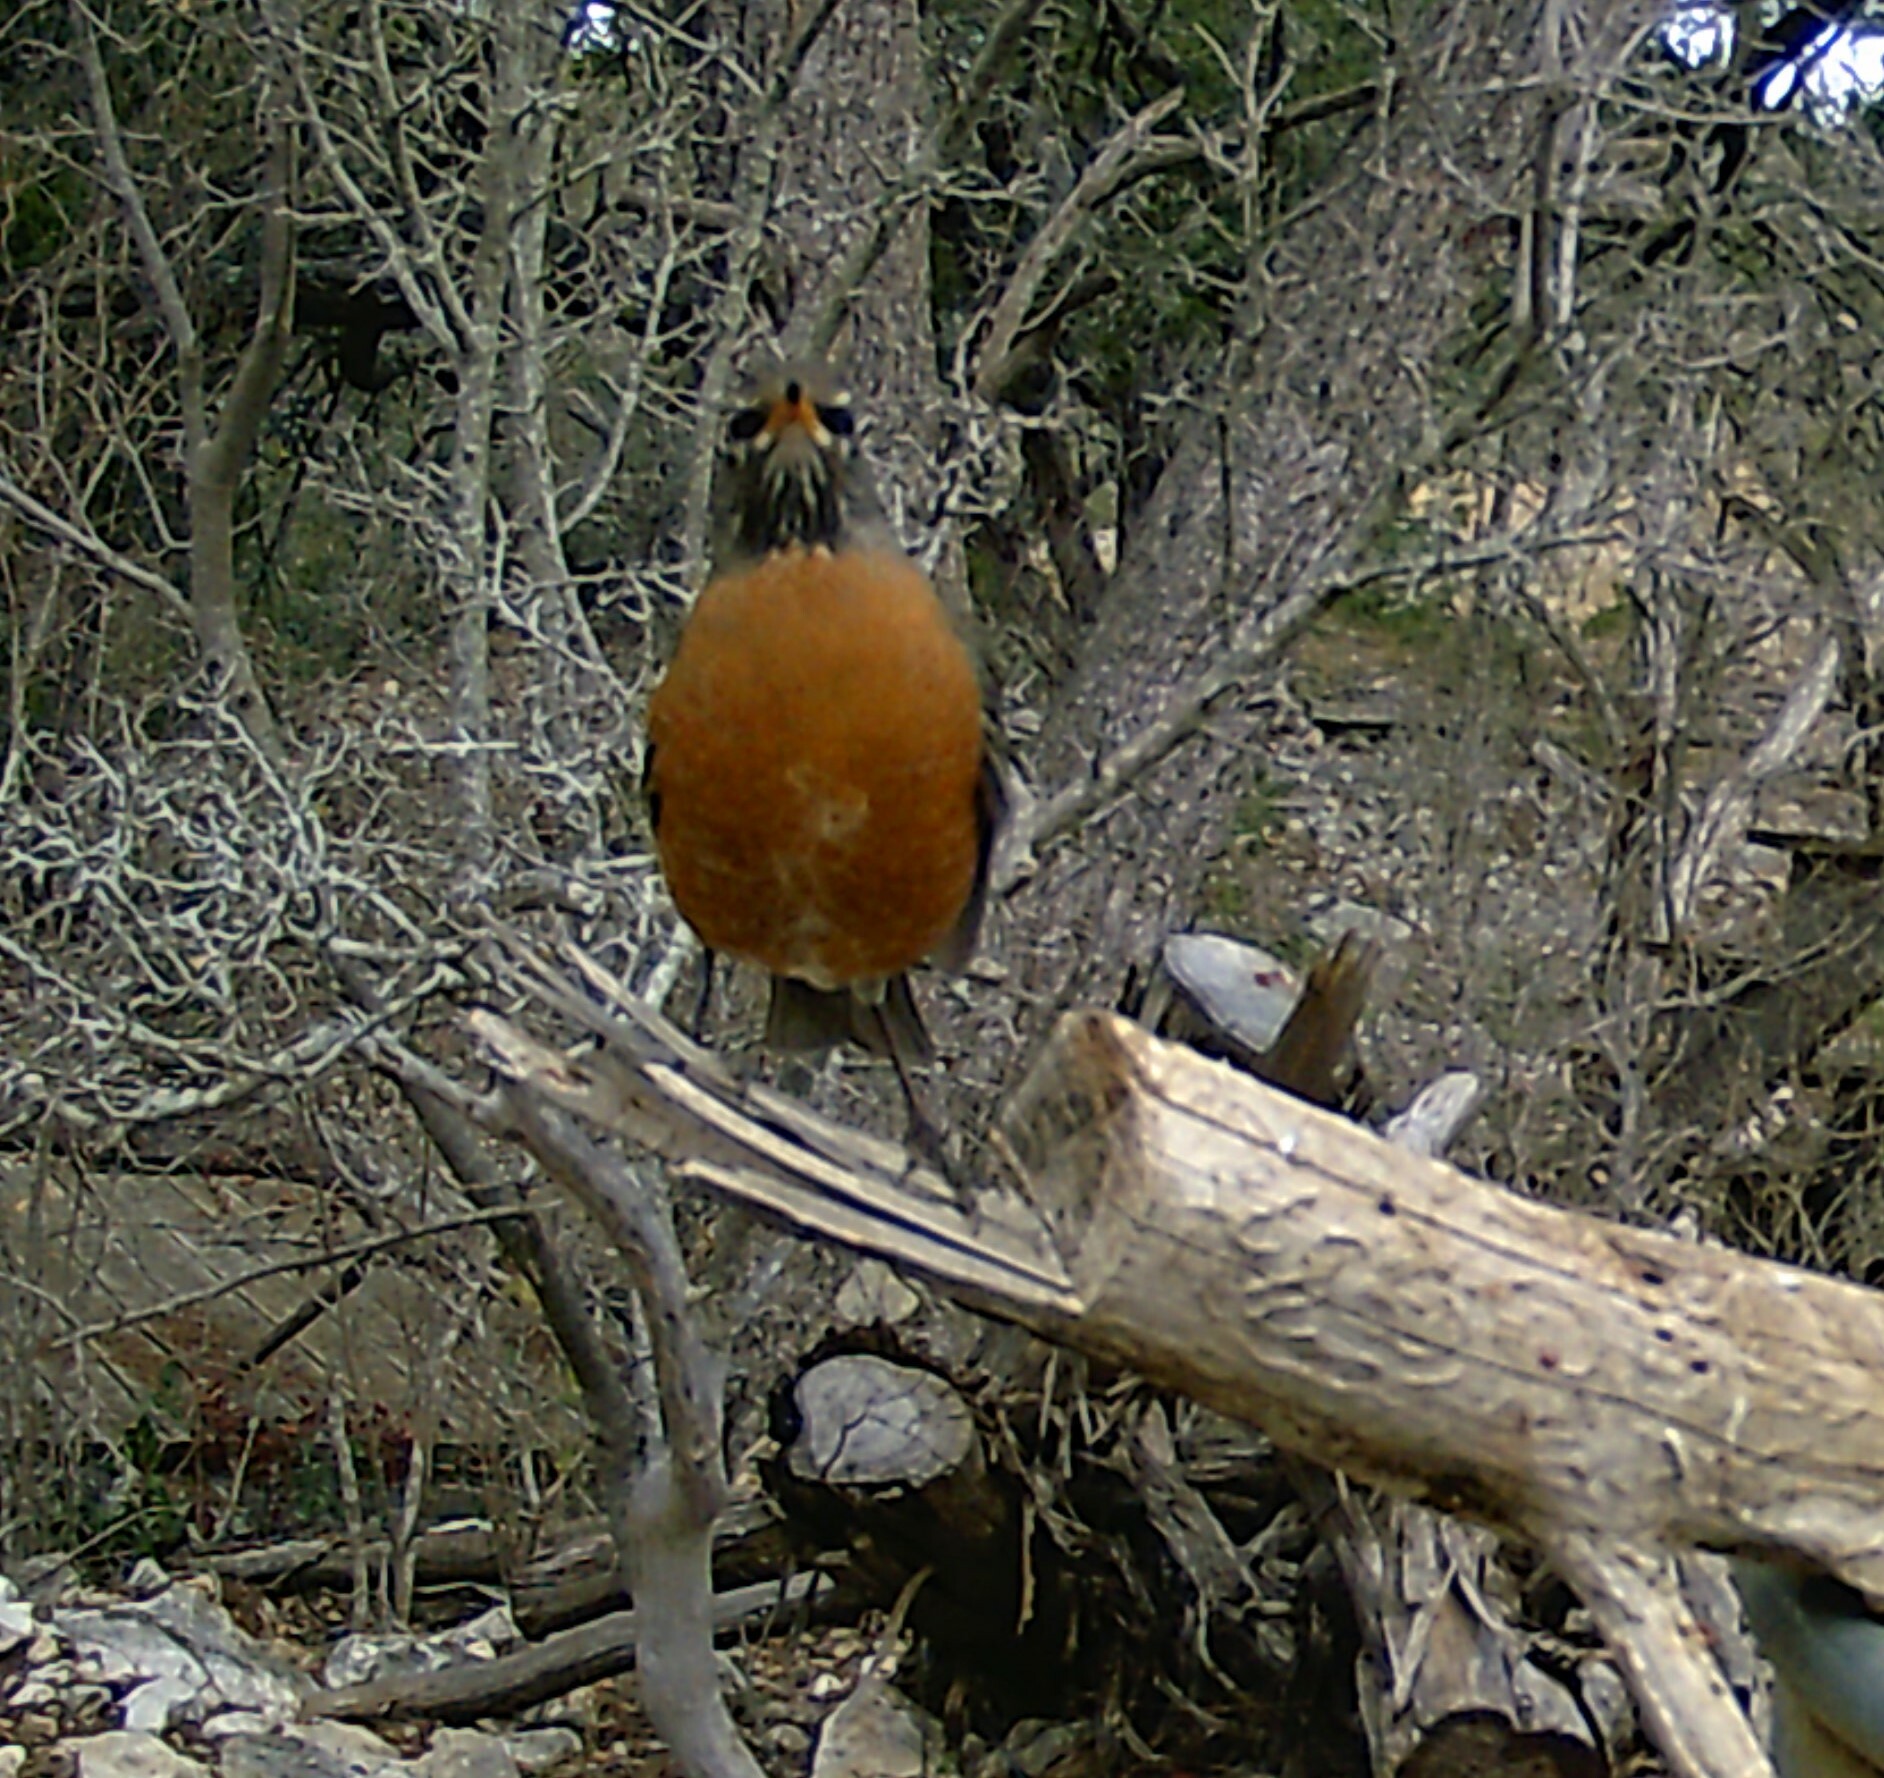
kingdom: Animalia
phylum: Chordata
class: Aves
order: Passeriformes
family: Turdidae
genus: Turdus
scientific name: Turdus migratorius
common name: American robin
